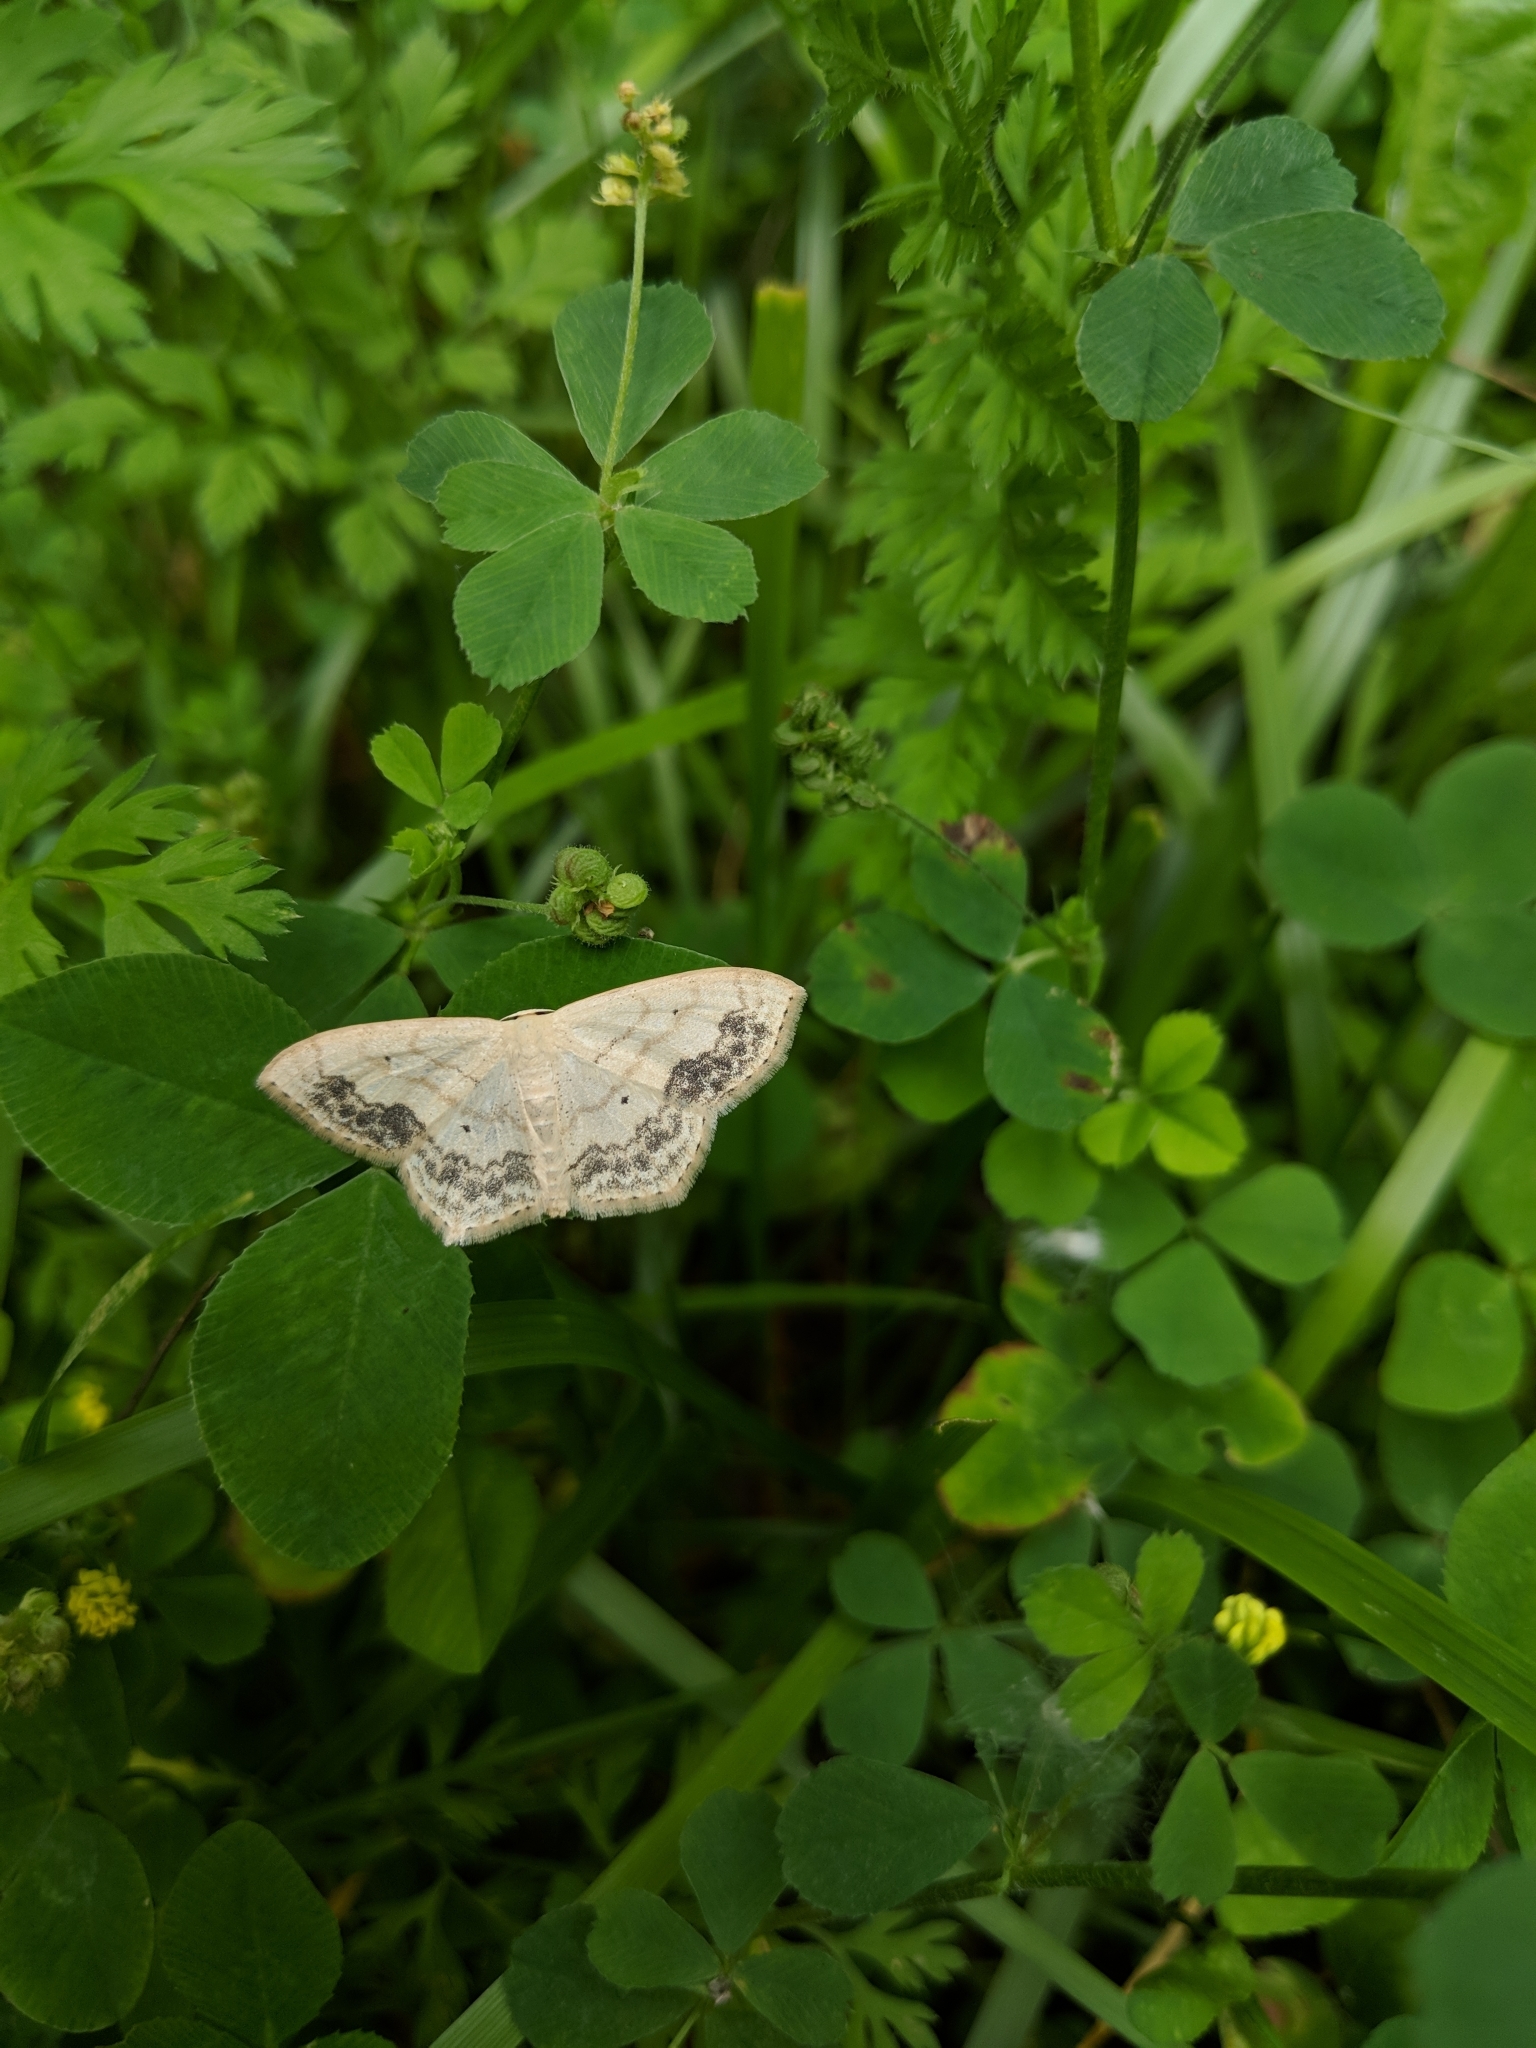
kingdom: Animalia
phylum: Arthropoda
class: Insecta
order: Lepidoptera
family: Geometridae
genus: Scopula
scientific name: Scopula limboundata
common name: Large lace border
